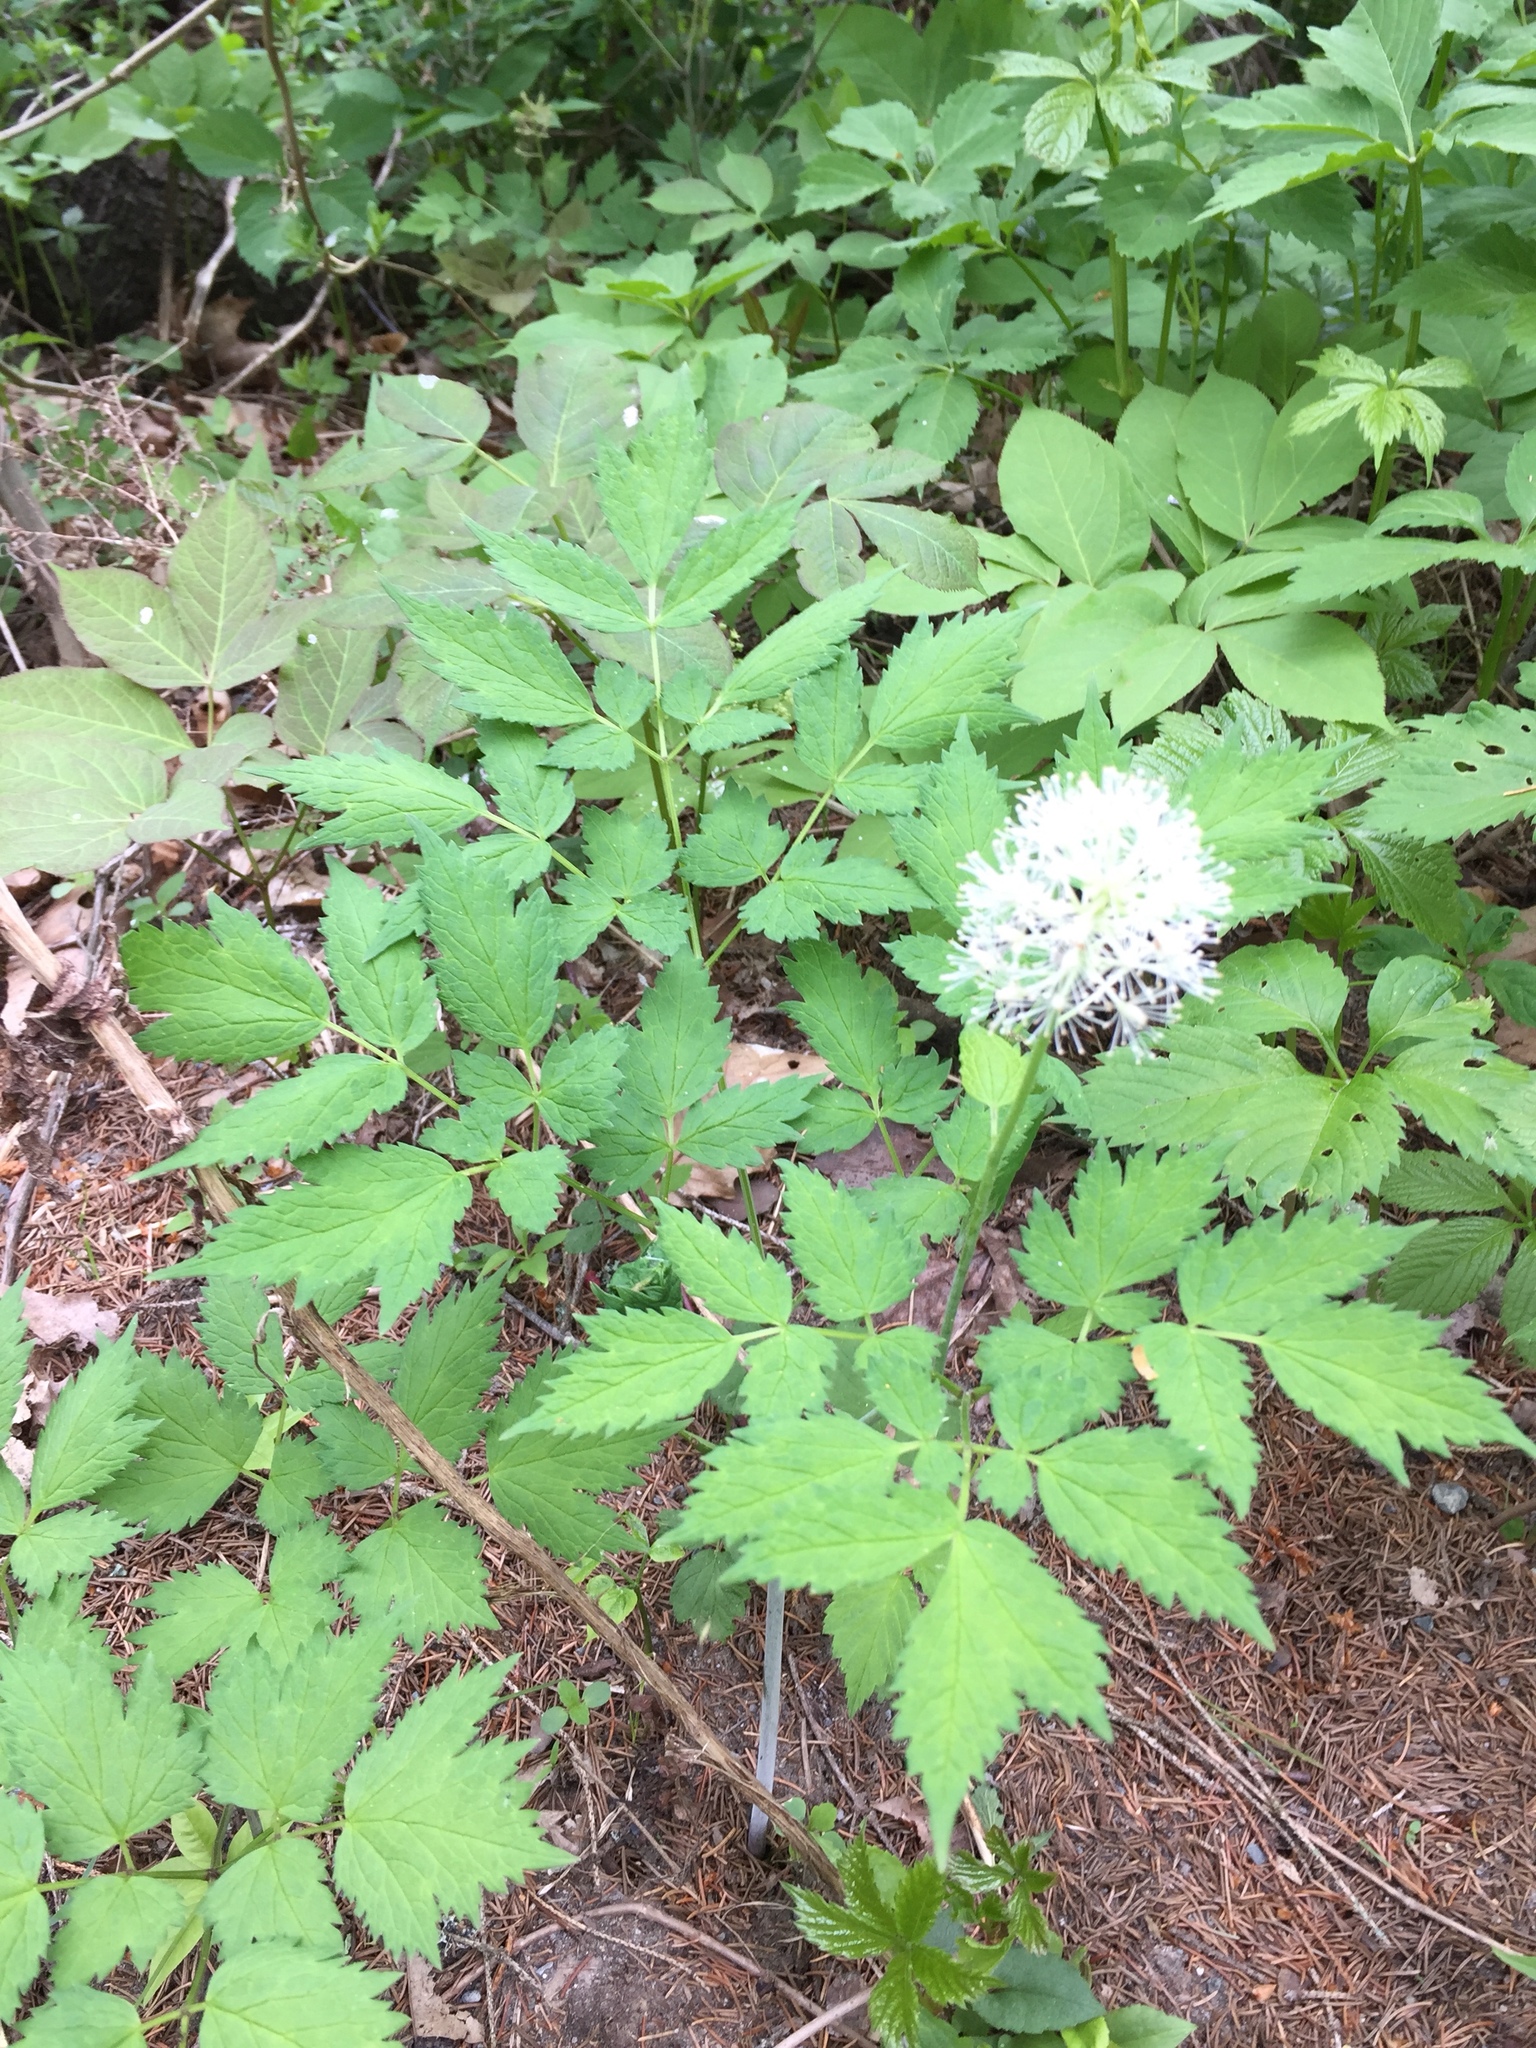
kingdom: Plantae
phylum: Tracheophyta
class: Magnoliopsida
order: Ranunculales
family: Ranunculaceae
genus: Actaea
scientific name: Actaea pachypoda
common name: Doll's-eyes
